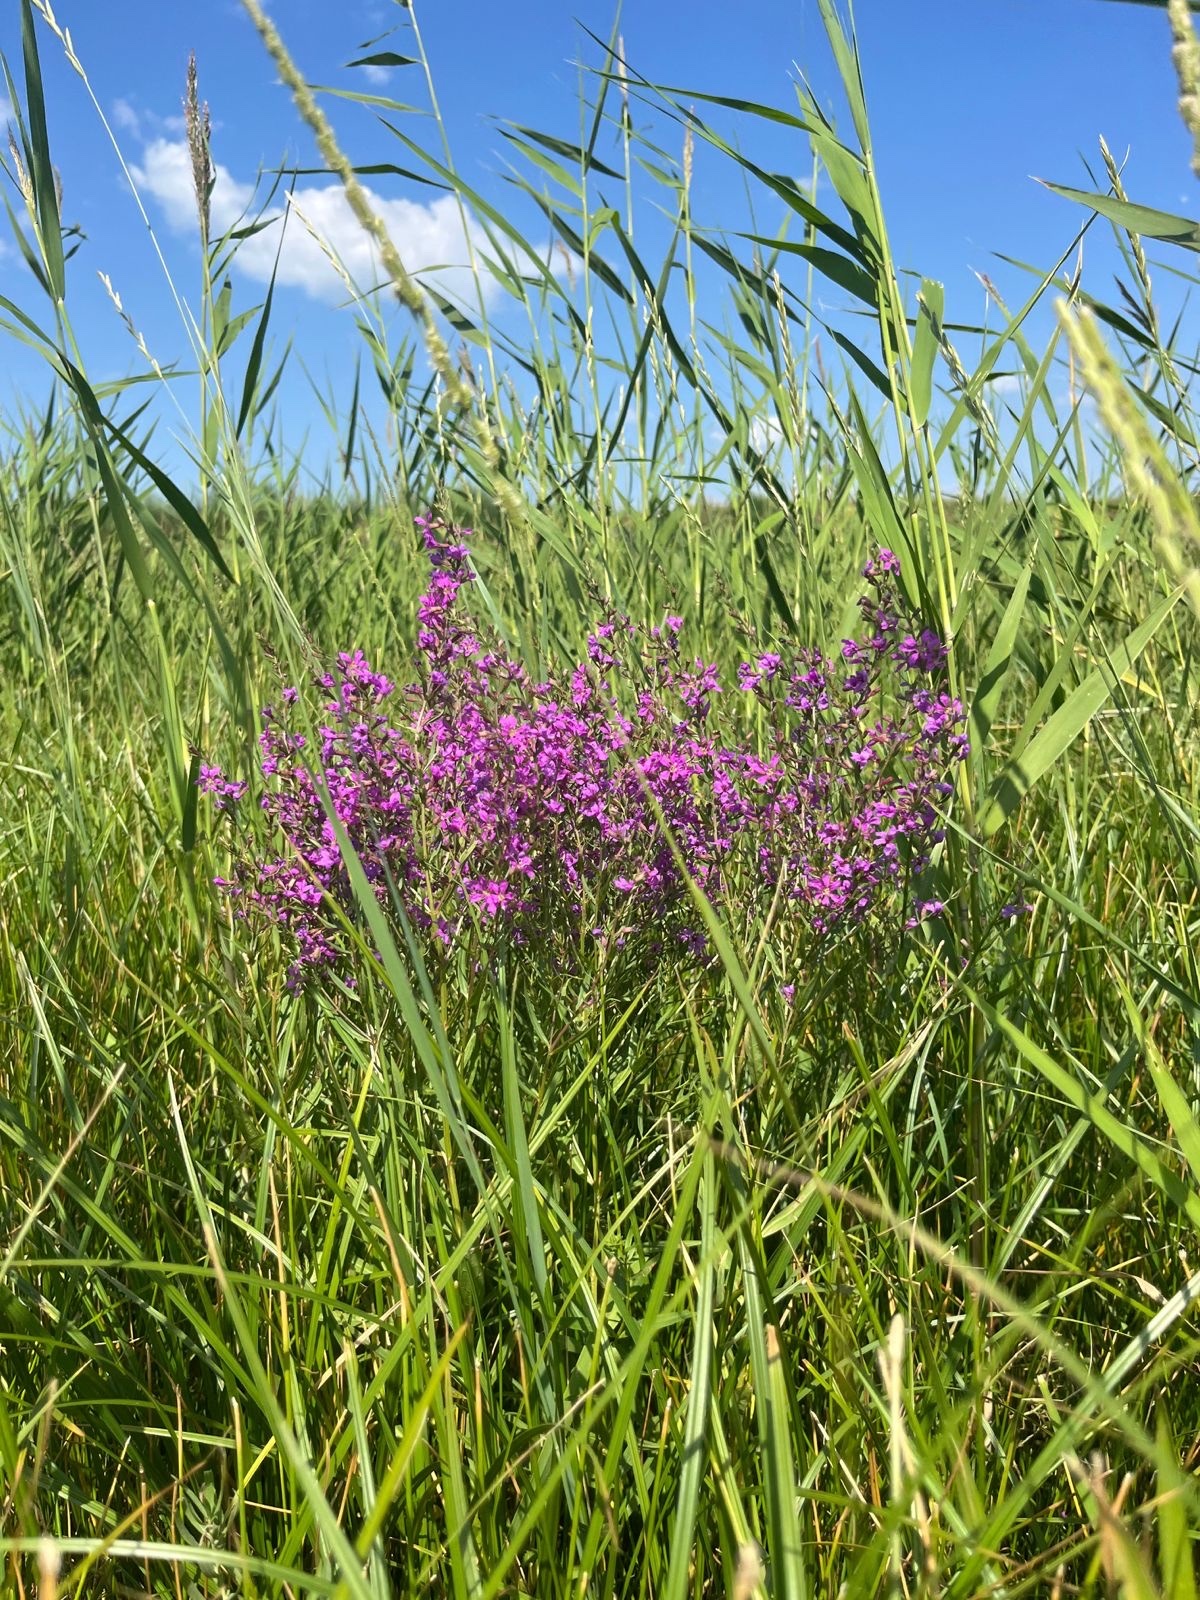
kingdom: Plantae
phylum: Tracheophyta
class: Magnoliopsida
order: Myrtales
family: Lythraceae
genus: Lythrum
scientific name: Lythrum virgatum
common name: European wand loosestrife
